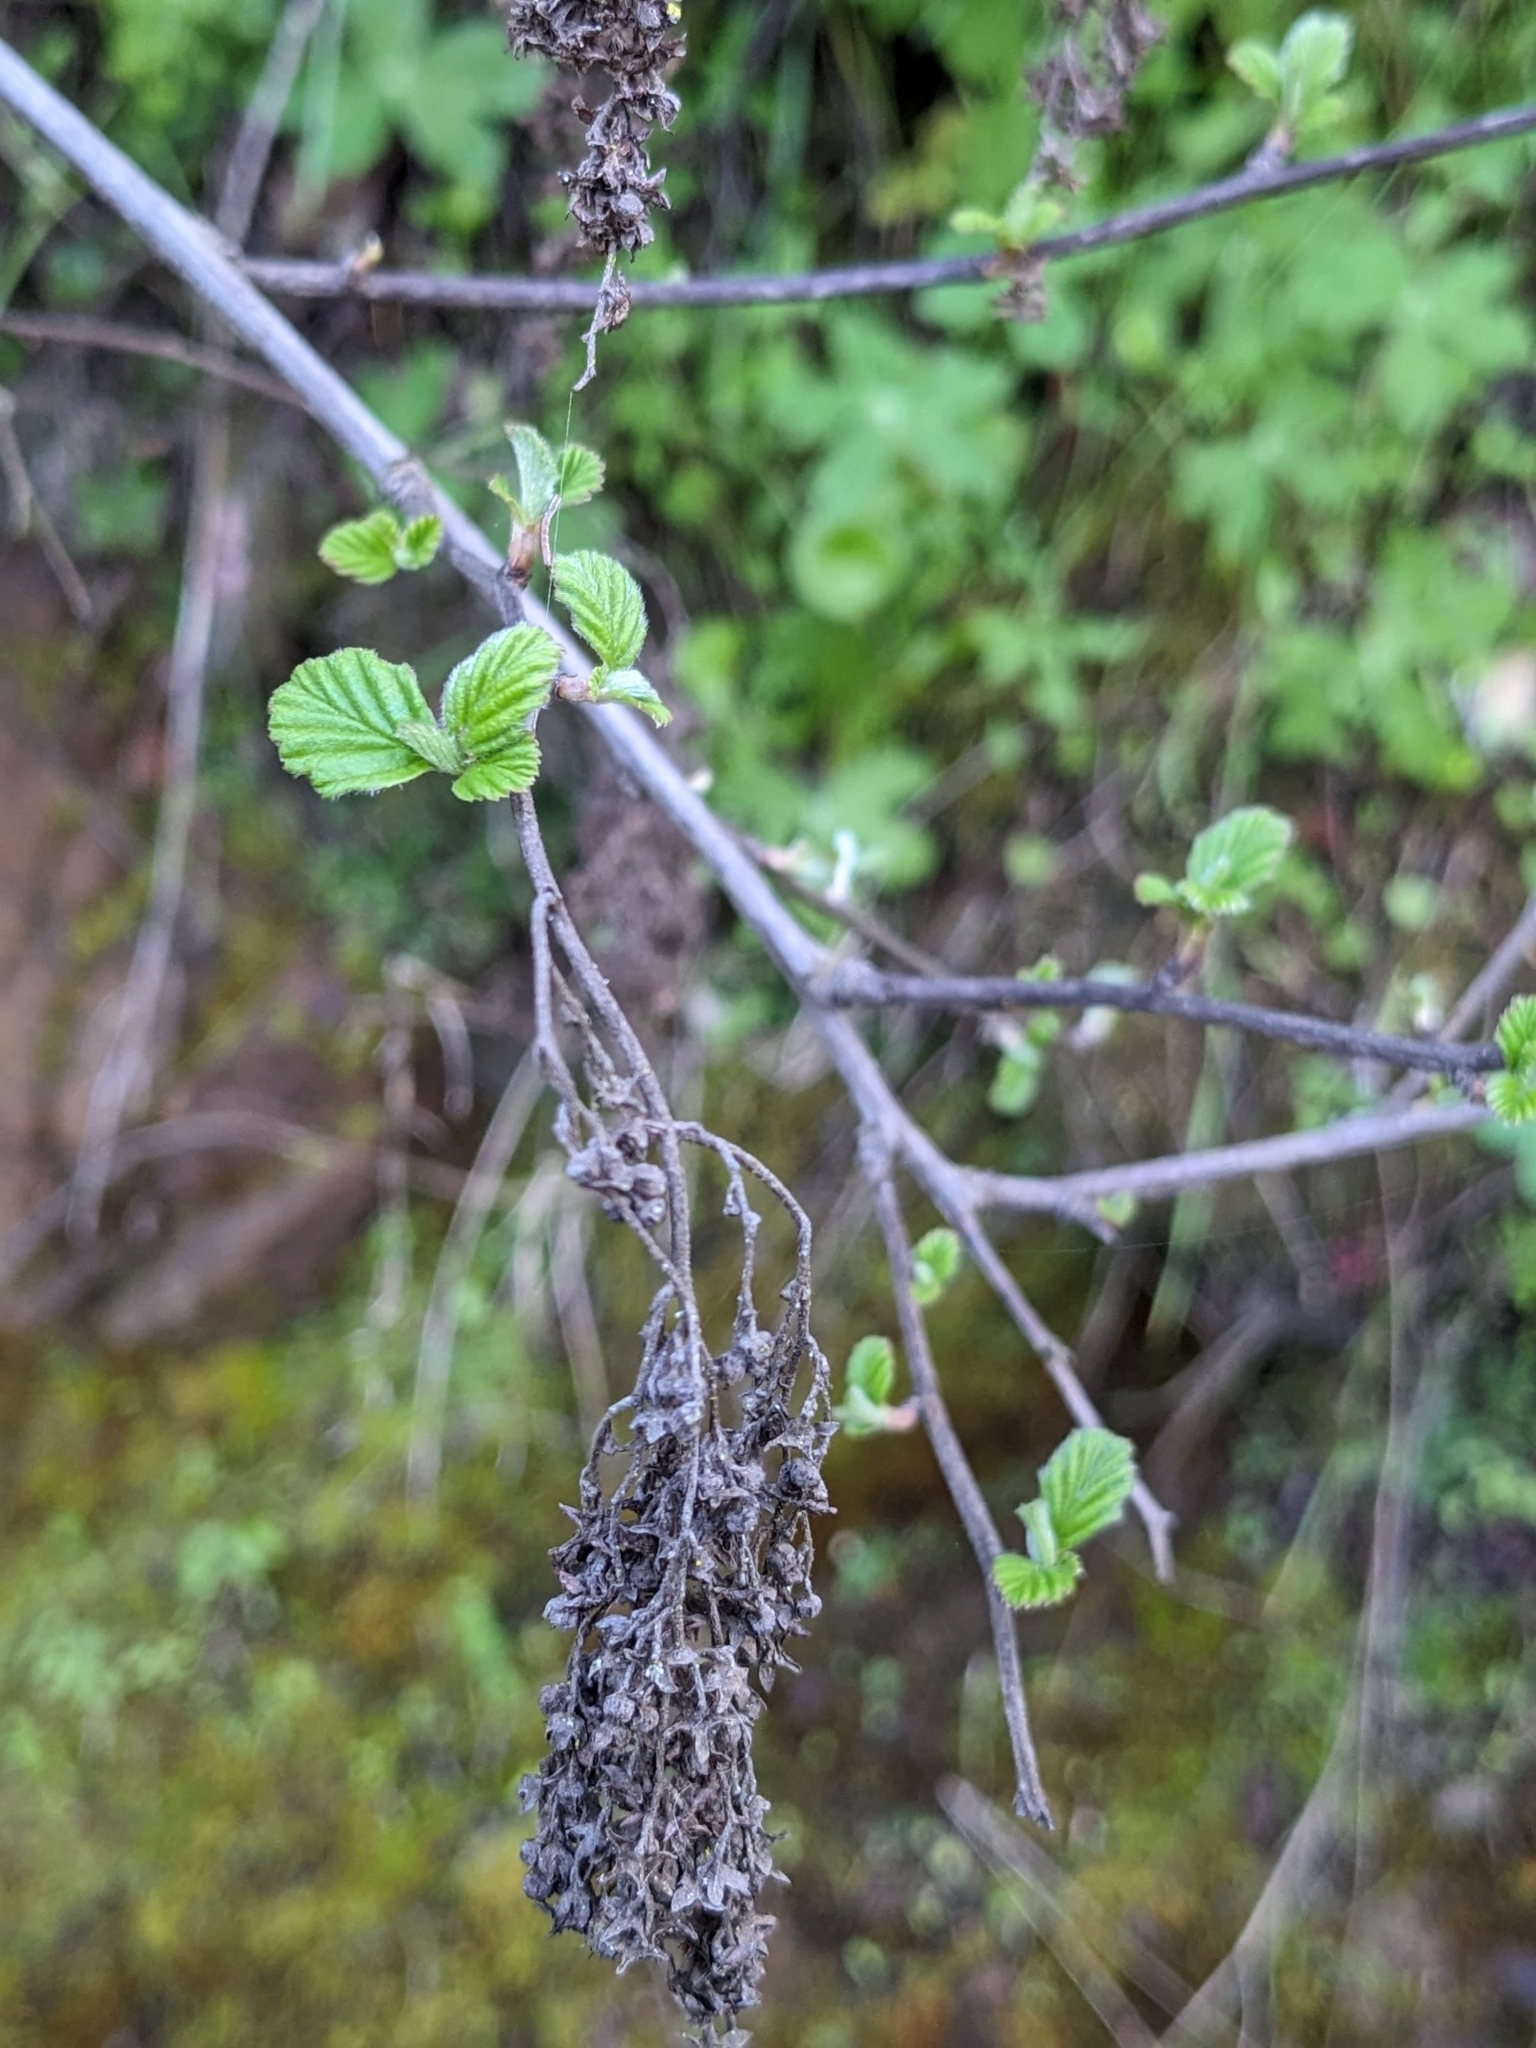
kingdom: Plantae
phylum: Tracheophyta
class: Magnoliopsida
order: Rosales
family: Rosaceae
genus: Holodiscus
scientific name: Holodiscus discolor
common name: Oceanspray
